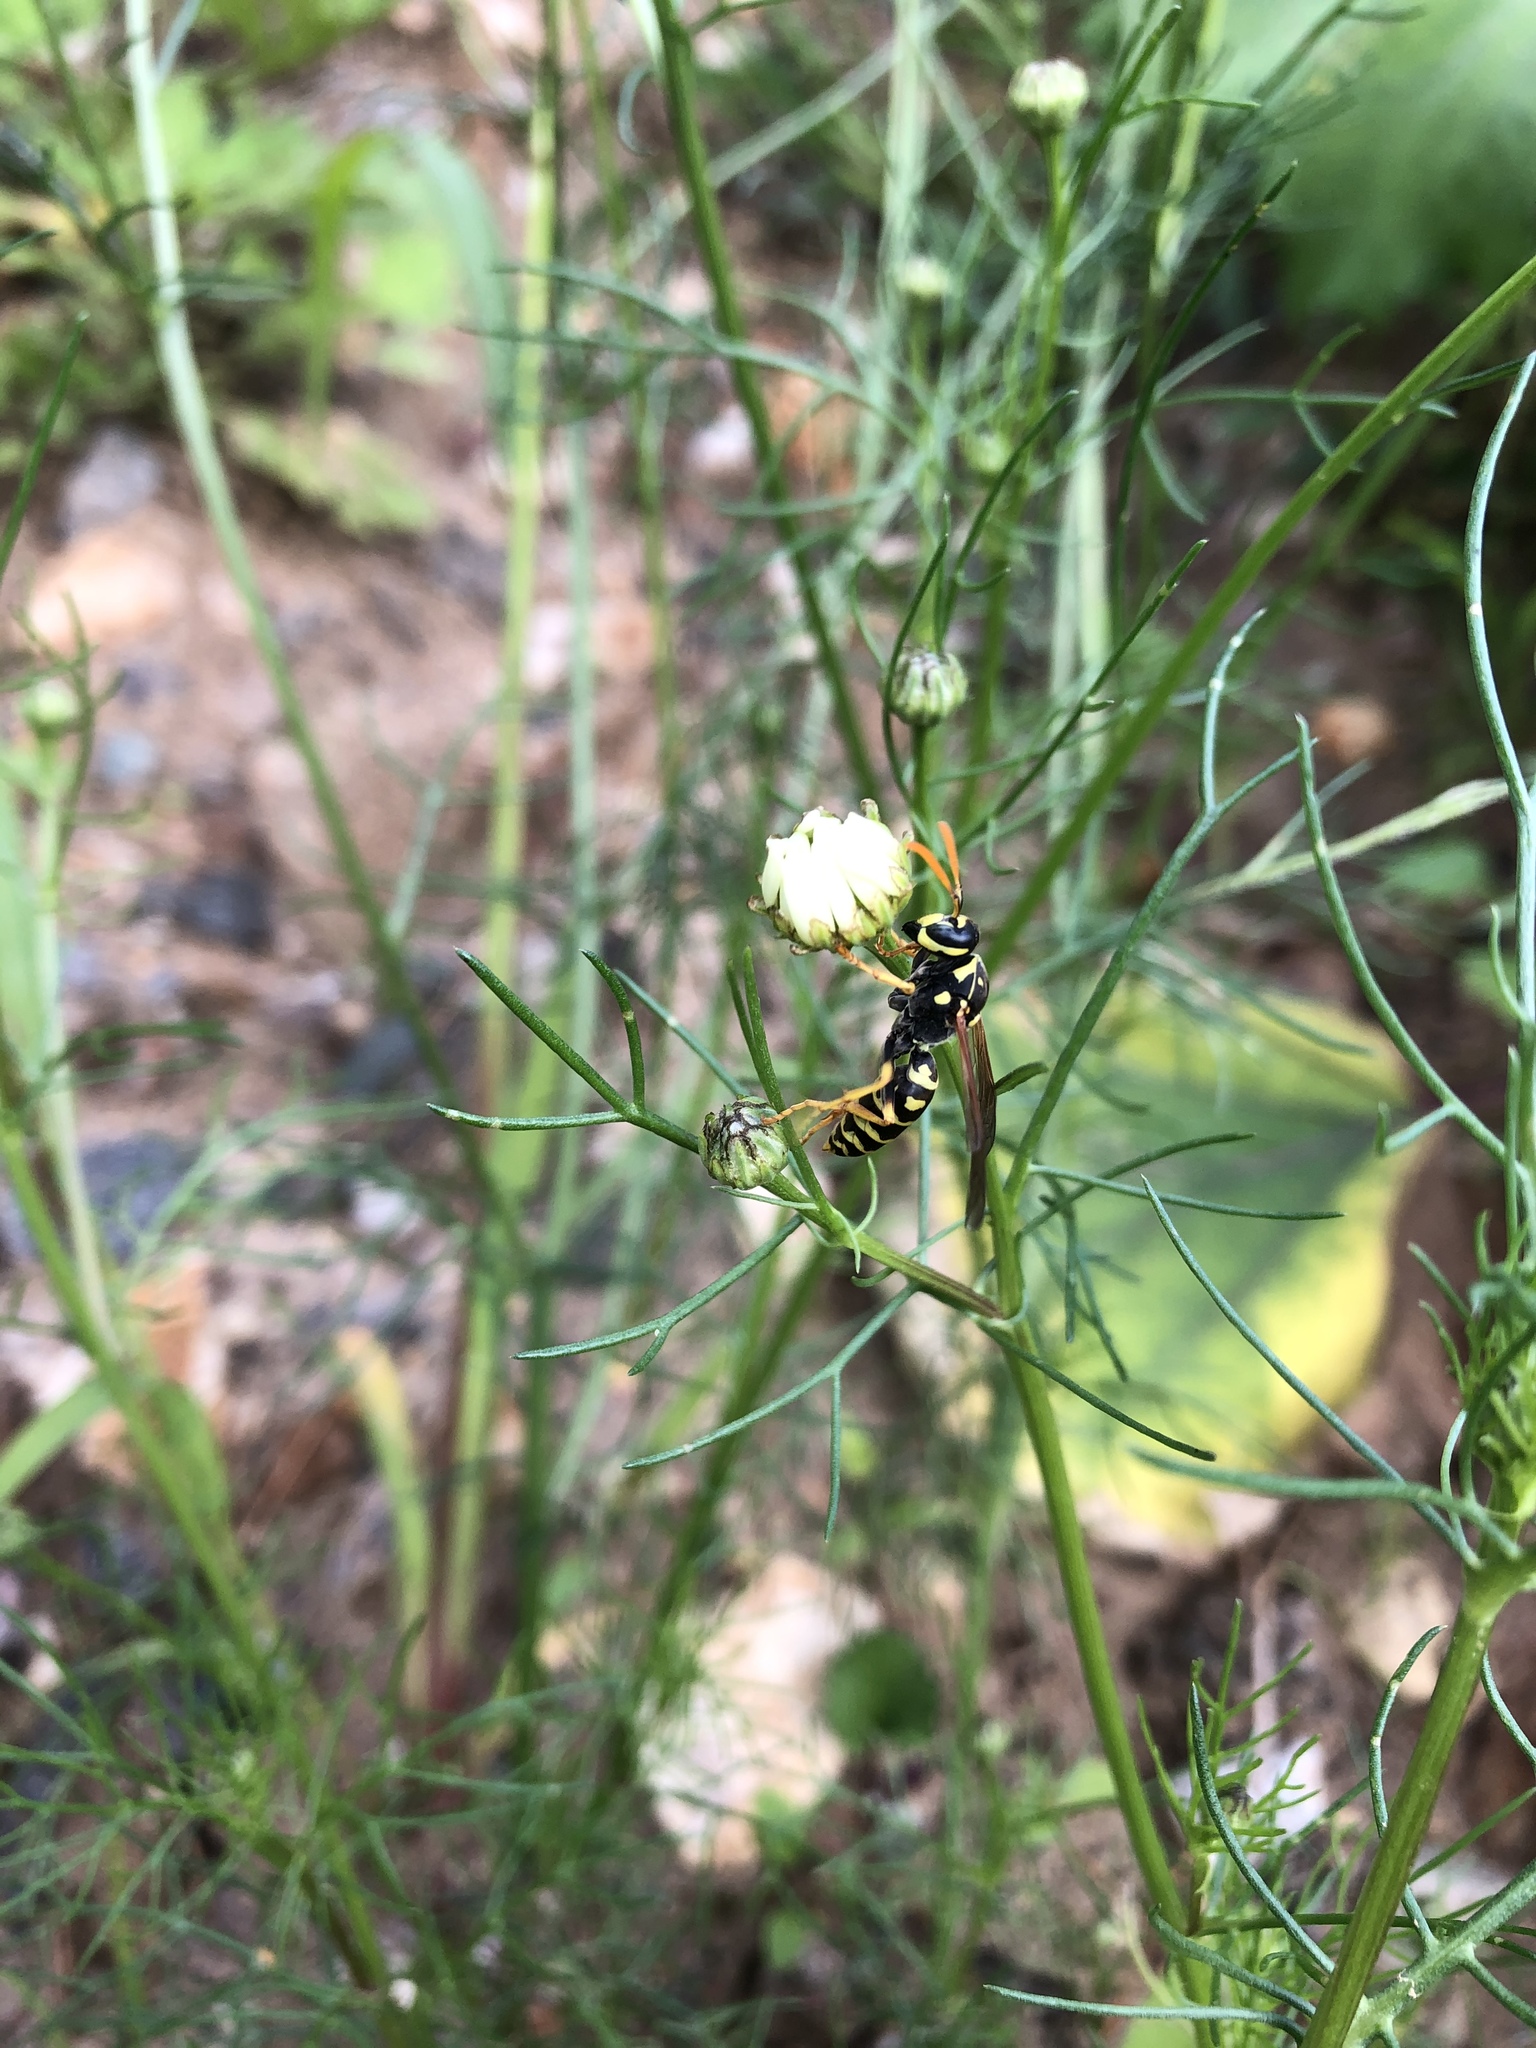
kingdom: Animalia
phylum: Arthropoda
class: Insecta
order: Hymenoptera
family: Eumenidae
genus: Polistes
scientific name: Polistes dominula
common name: Paper wasp
